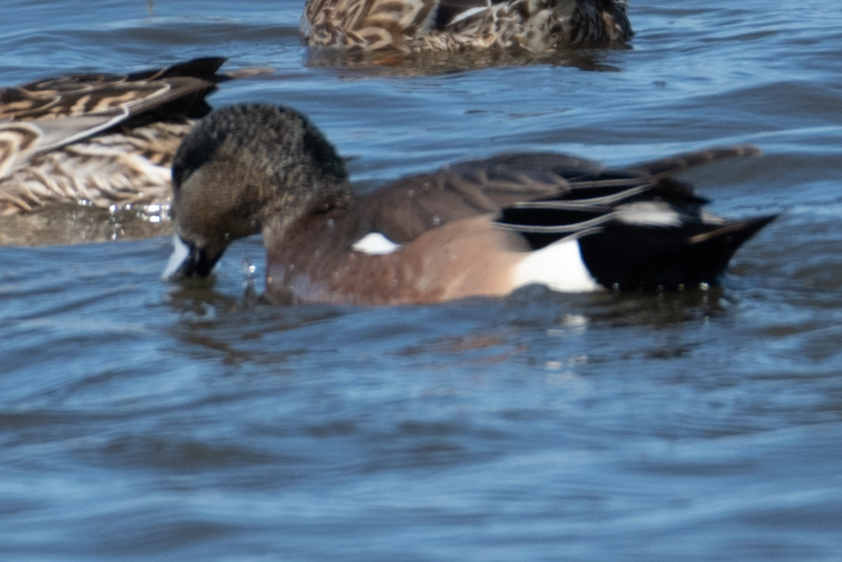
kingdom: Animalia
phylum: Chordata
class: Aves
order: Anseriformes
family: Anatidae
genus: Mareca
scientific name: Mareca americana
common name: American wigeon
